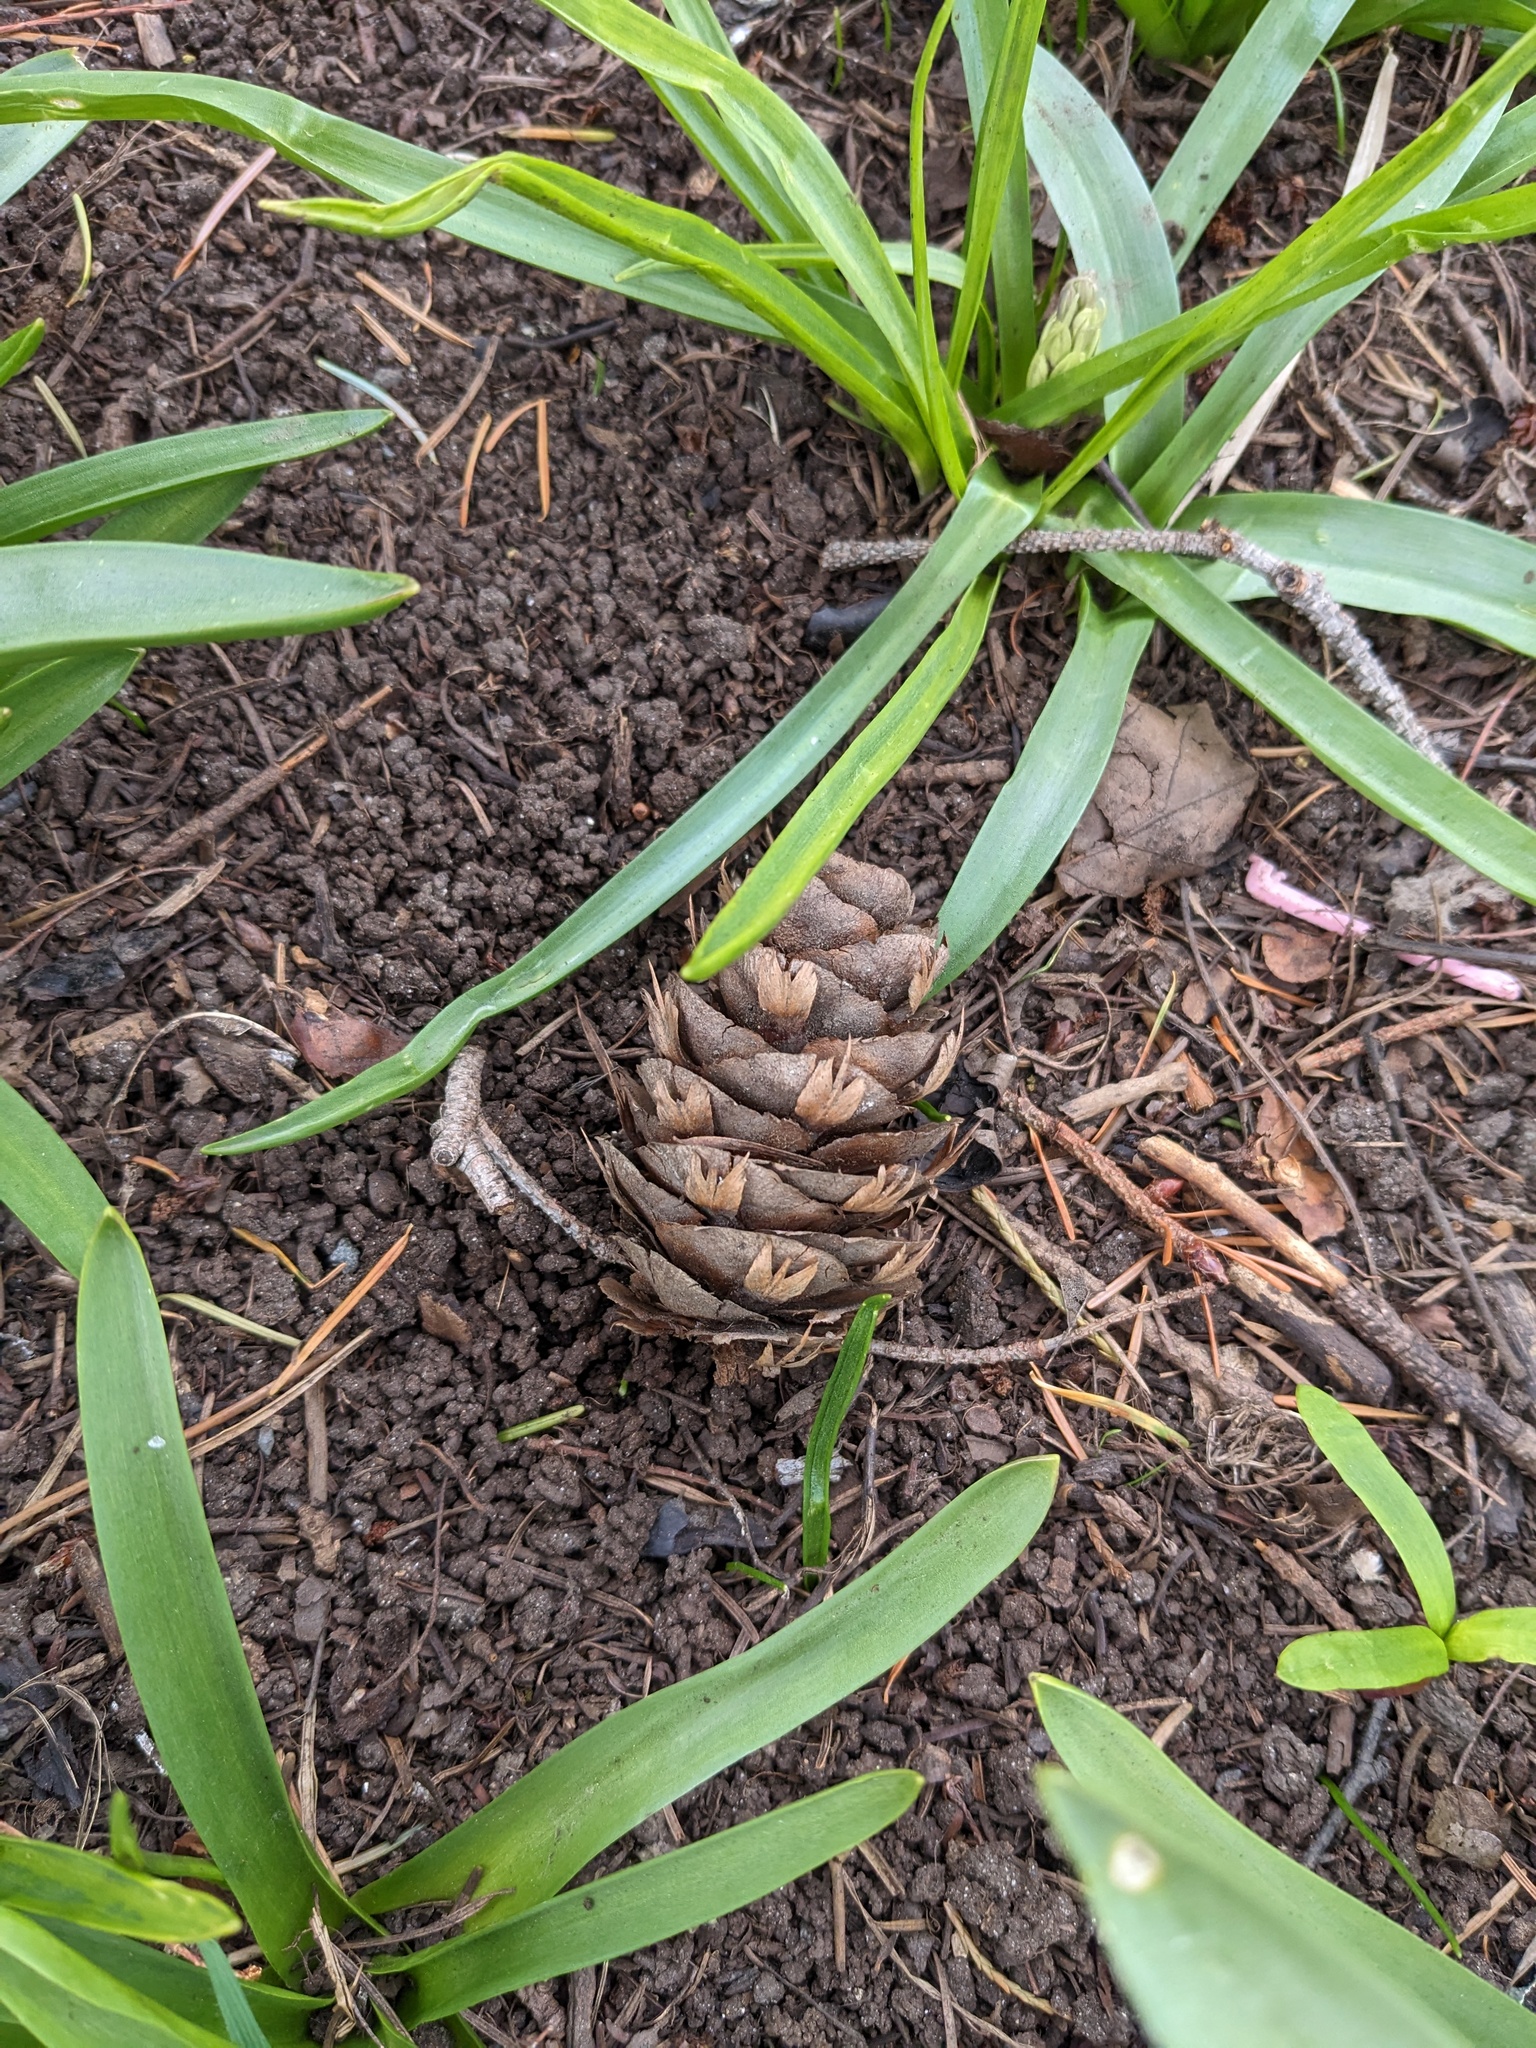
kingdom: Plantae
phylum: Tracheophyta
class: Pinopsida
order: Pinales
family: Pinaceae
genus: Pseudotsuga
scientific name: Pseudotsuga menziesii
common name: Douglas fir
